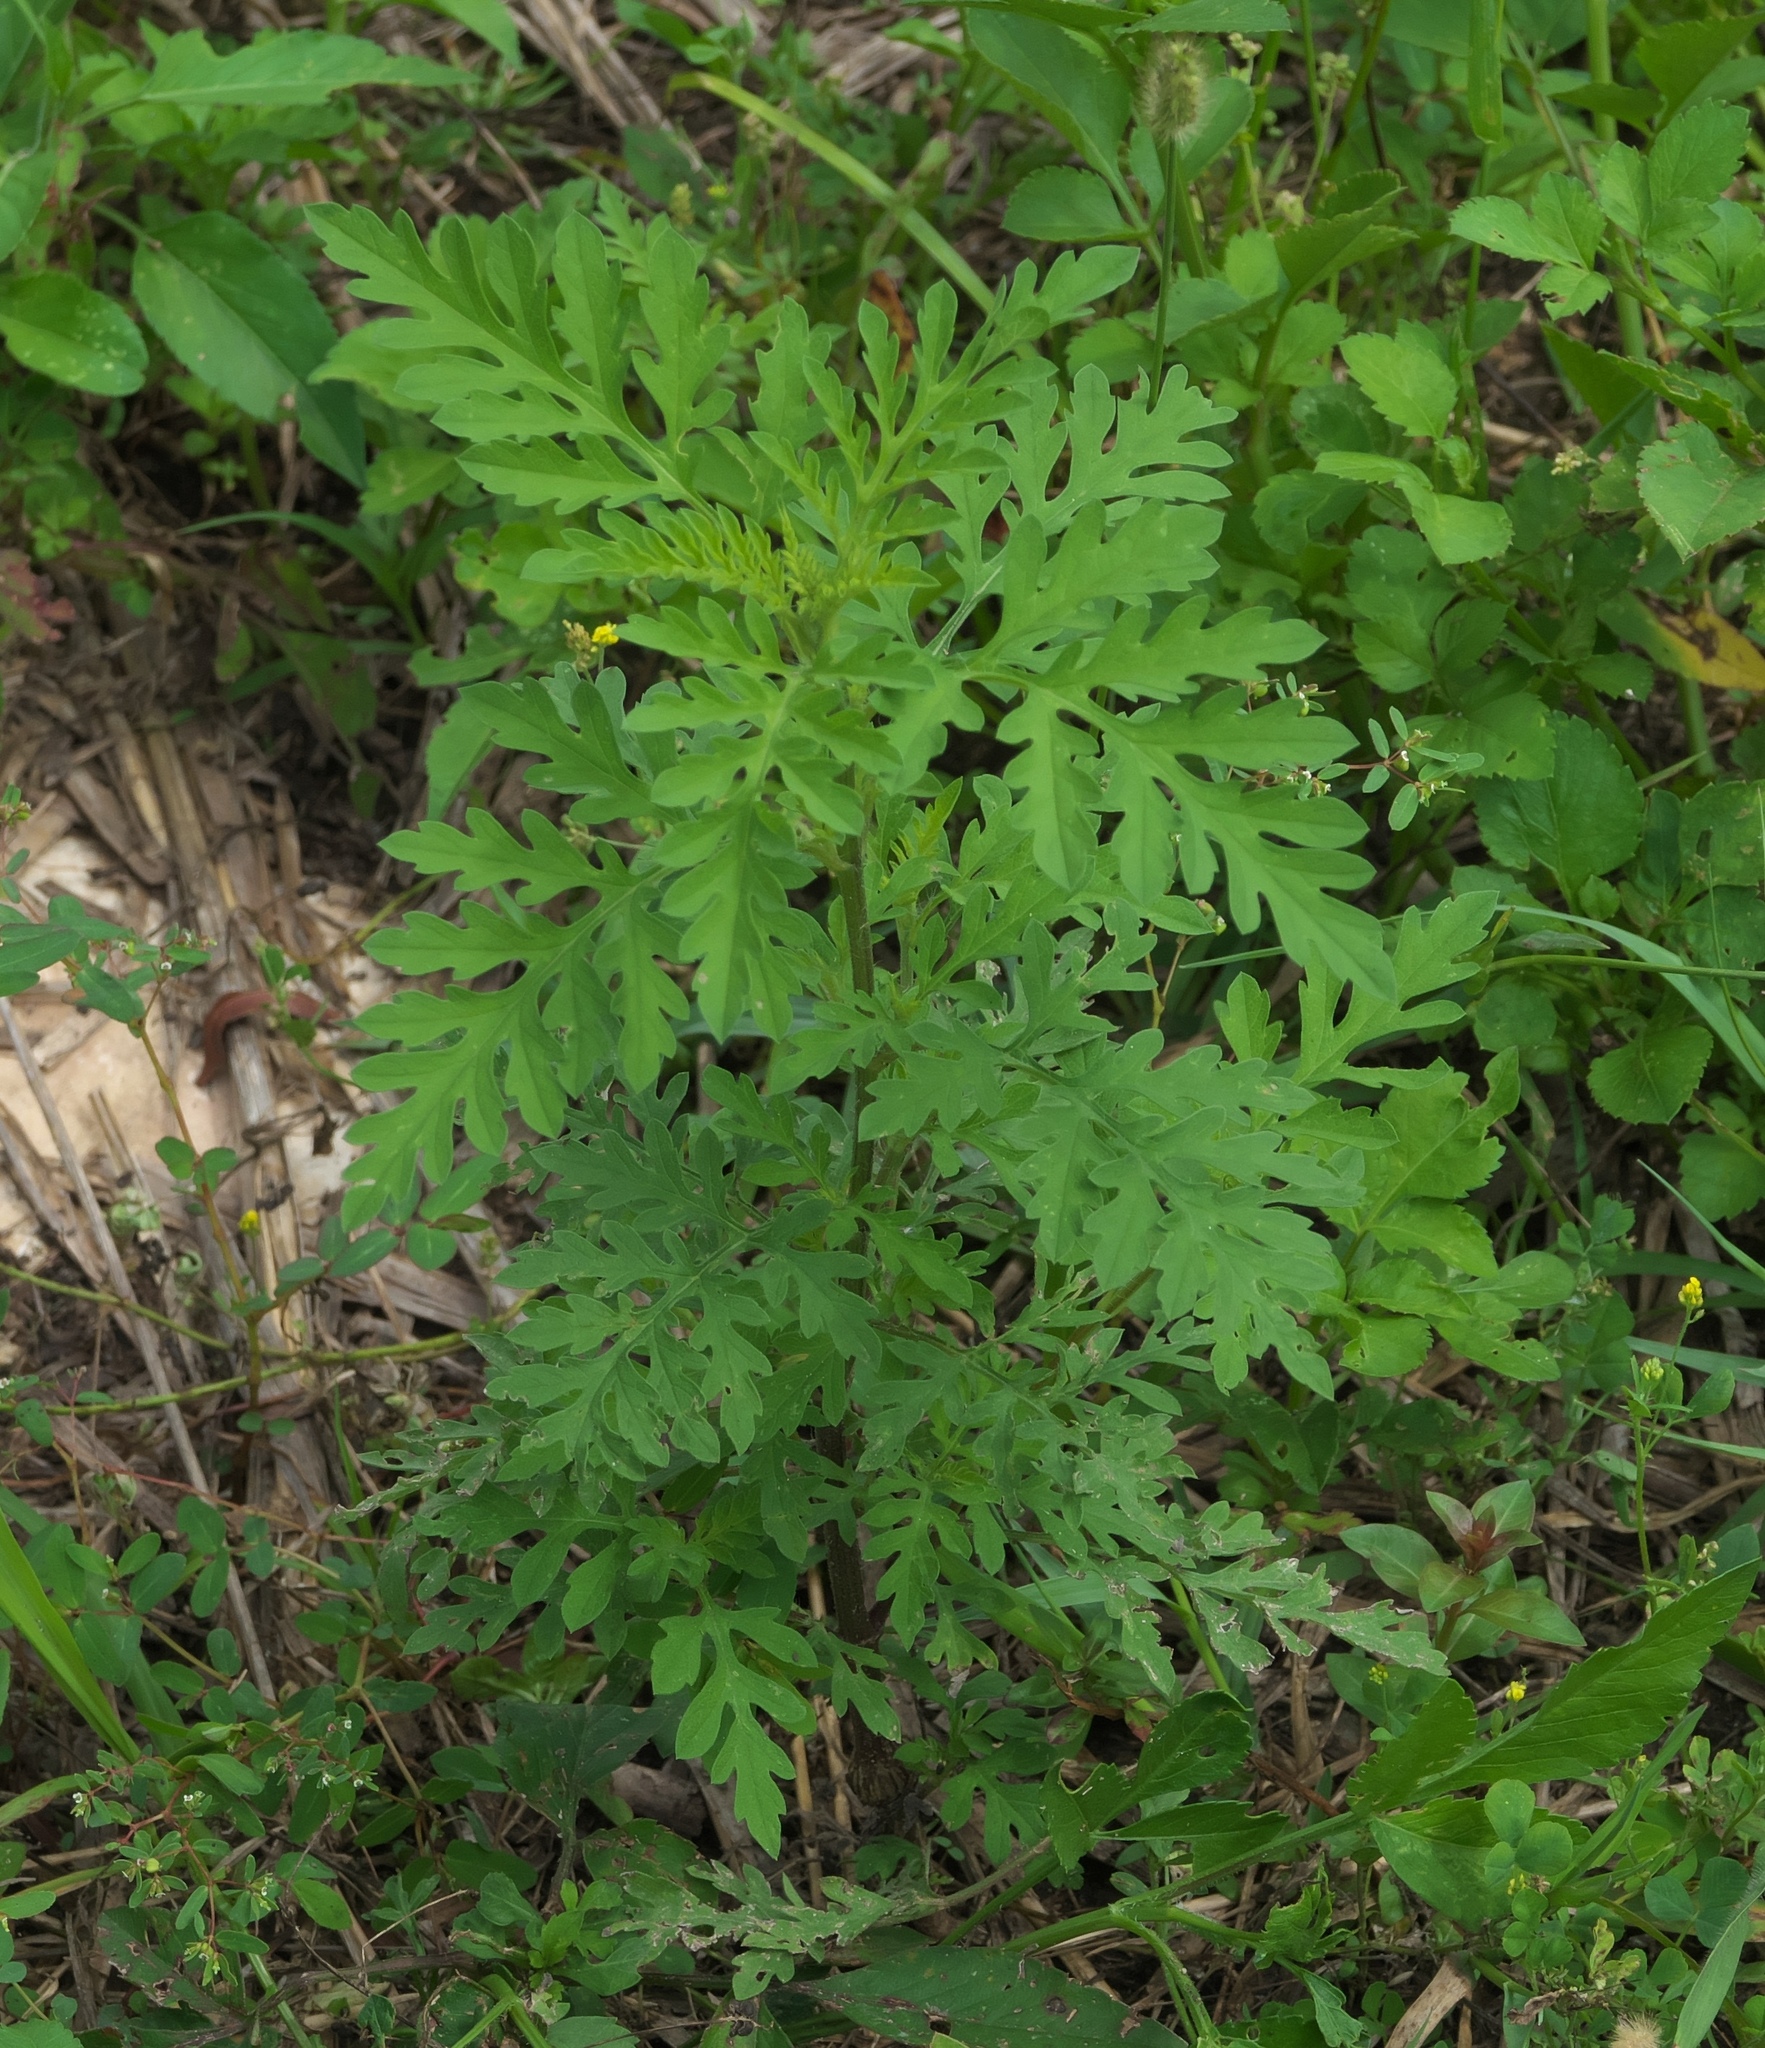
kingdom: Plantae
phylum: Tracheophyta
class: Magnoliopsida
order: Asterales
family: Asteraceae
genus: Ambrosia
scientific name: Ambrosia artemisiifolia
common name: Annual ragweed
